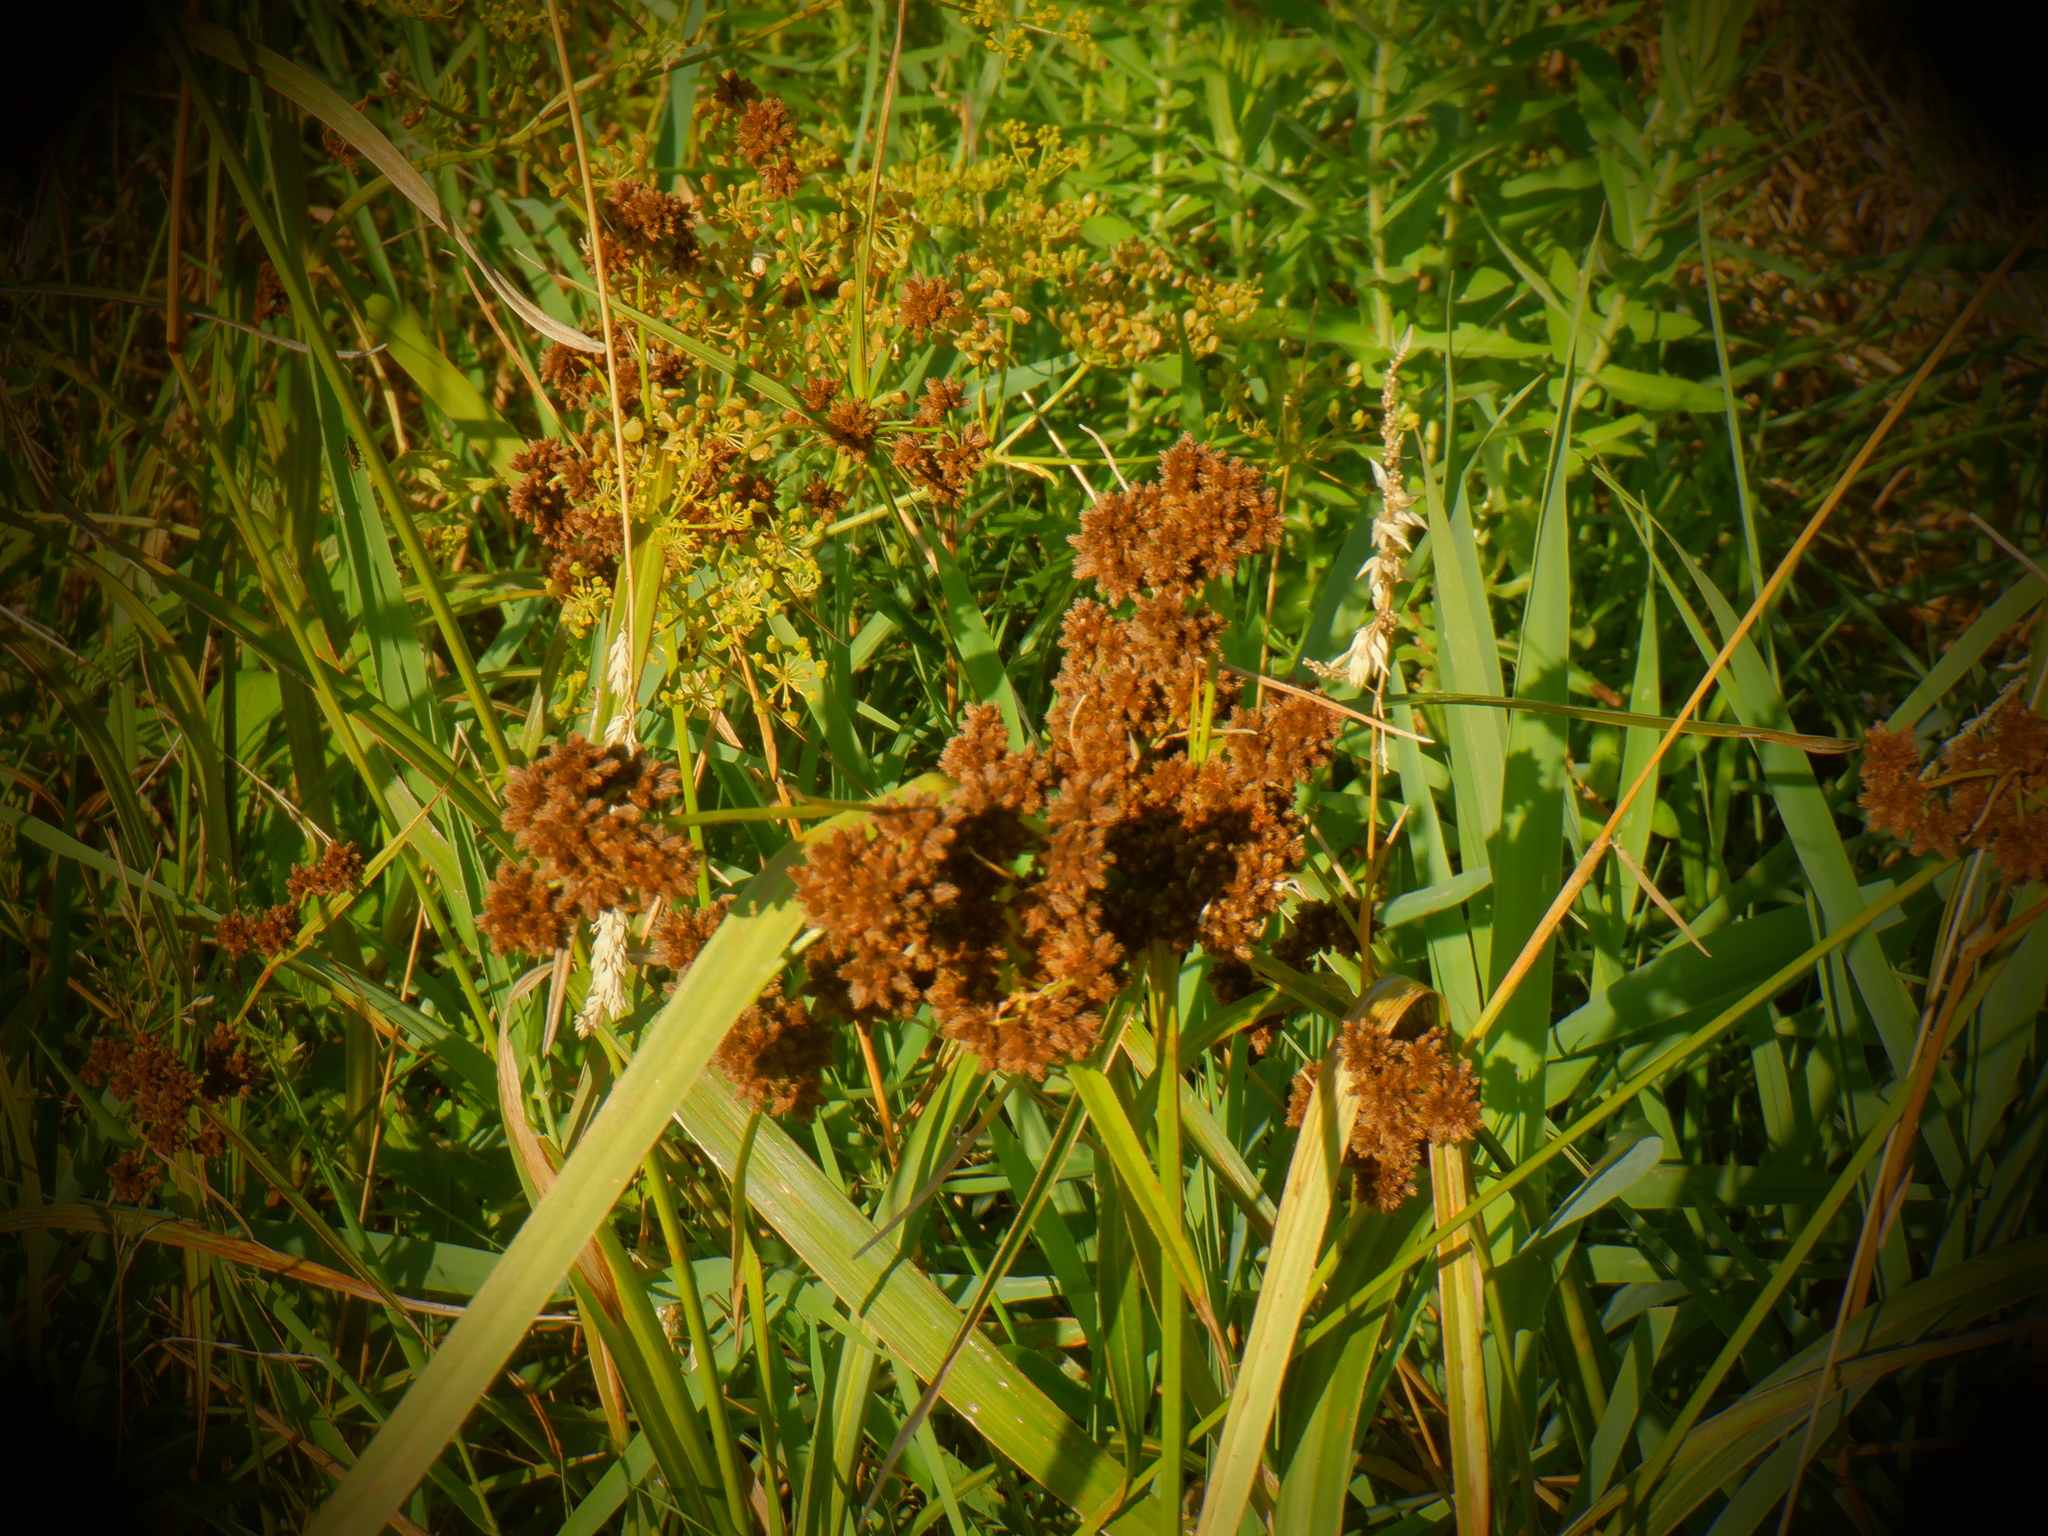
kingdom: Plantae
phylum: Tracheophyta
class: Liliopsida
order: Poales
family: Cyperaceae
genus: Scirpus
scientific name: Scirpus atrovirens
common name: Black bulrush
